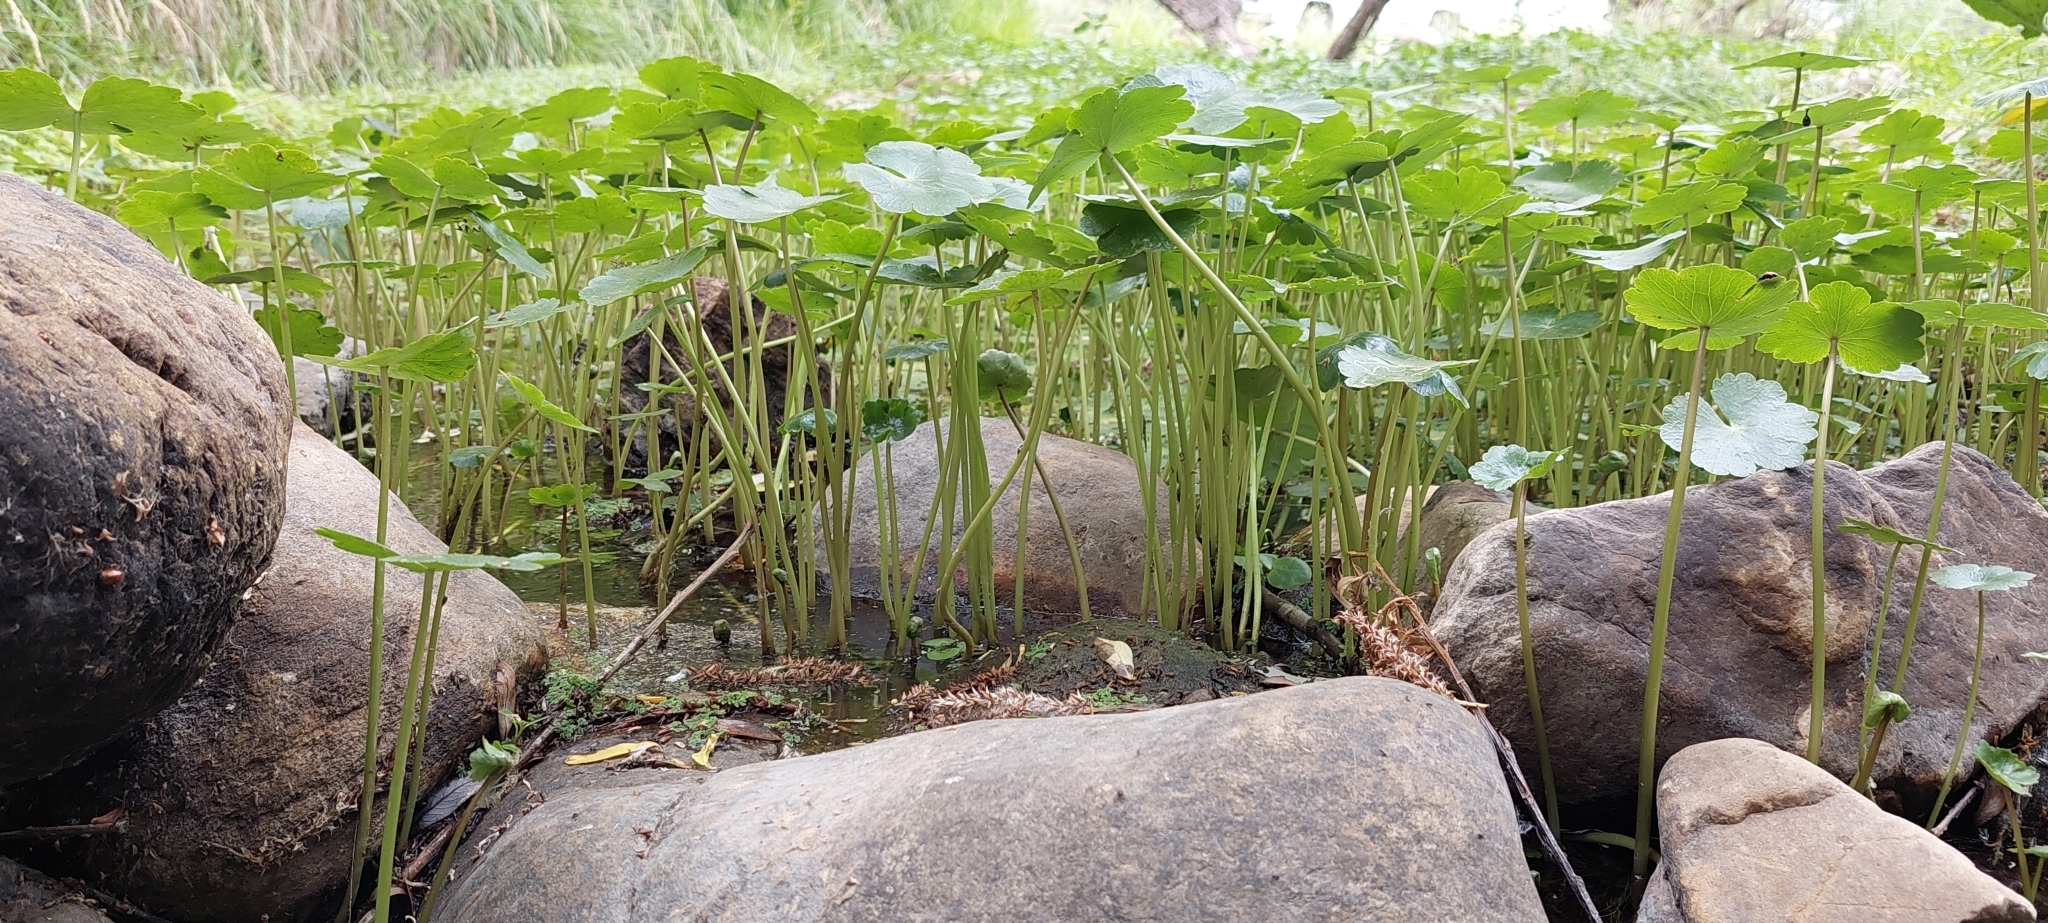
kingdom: Plantae
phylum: Tracheophyta
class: Magnoliopsida
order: Apiales
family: Araliaceae
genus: Hydrocotyle
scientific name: Hydrocotyle ranunculoides
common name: Floating pennywort
